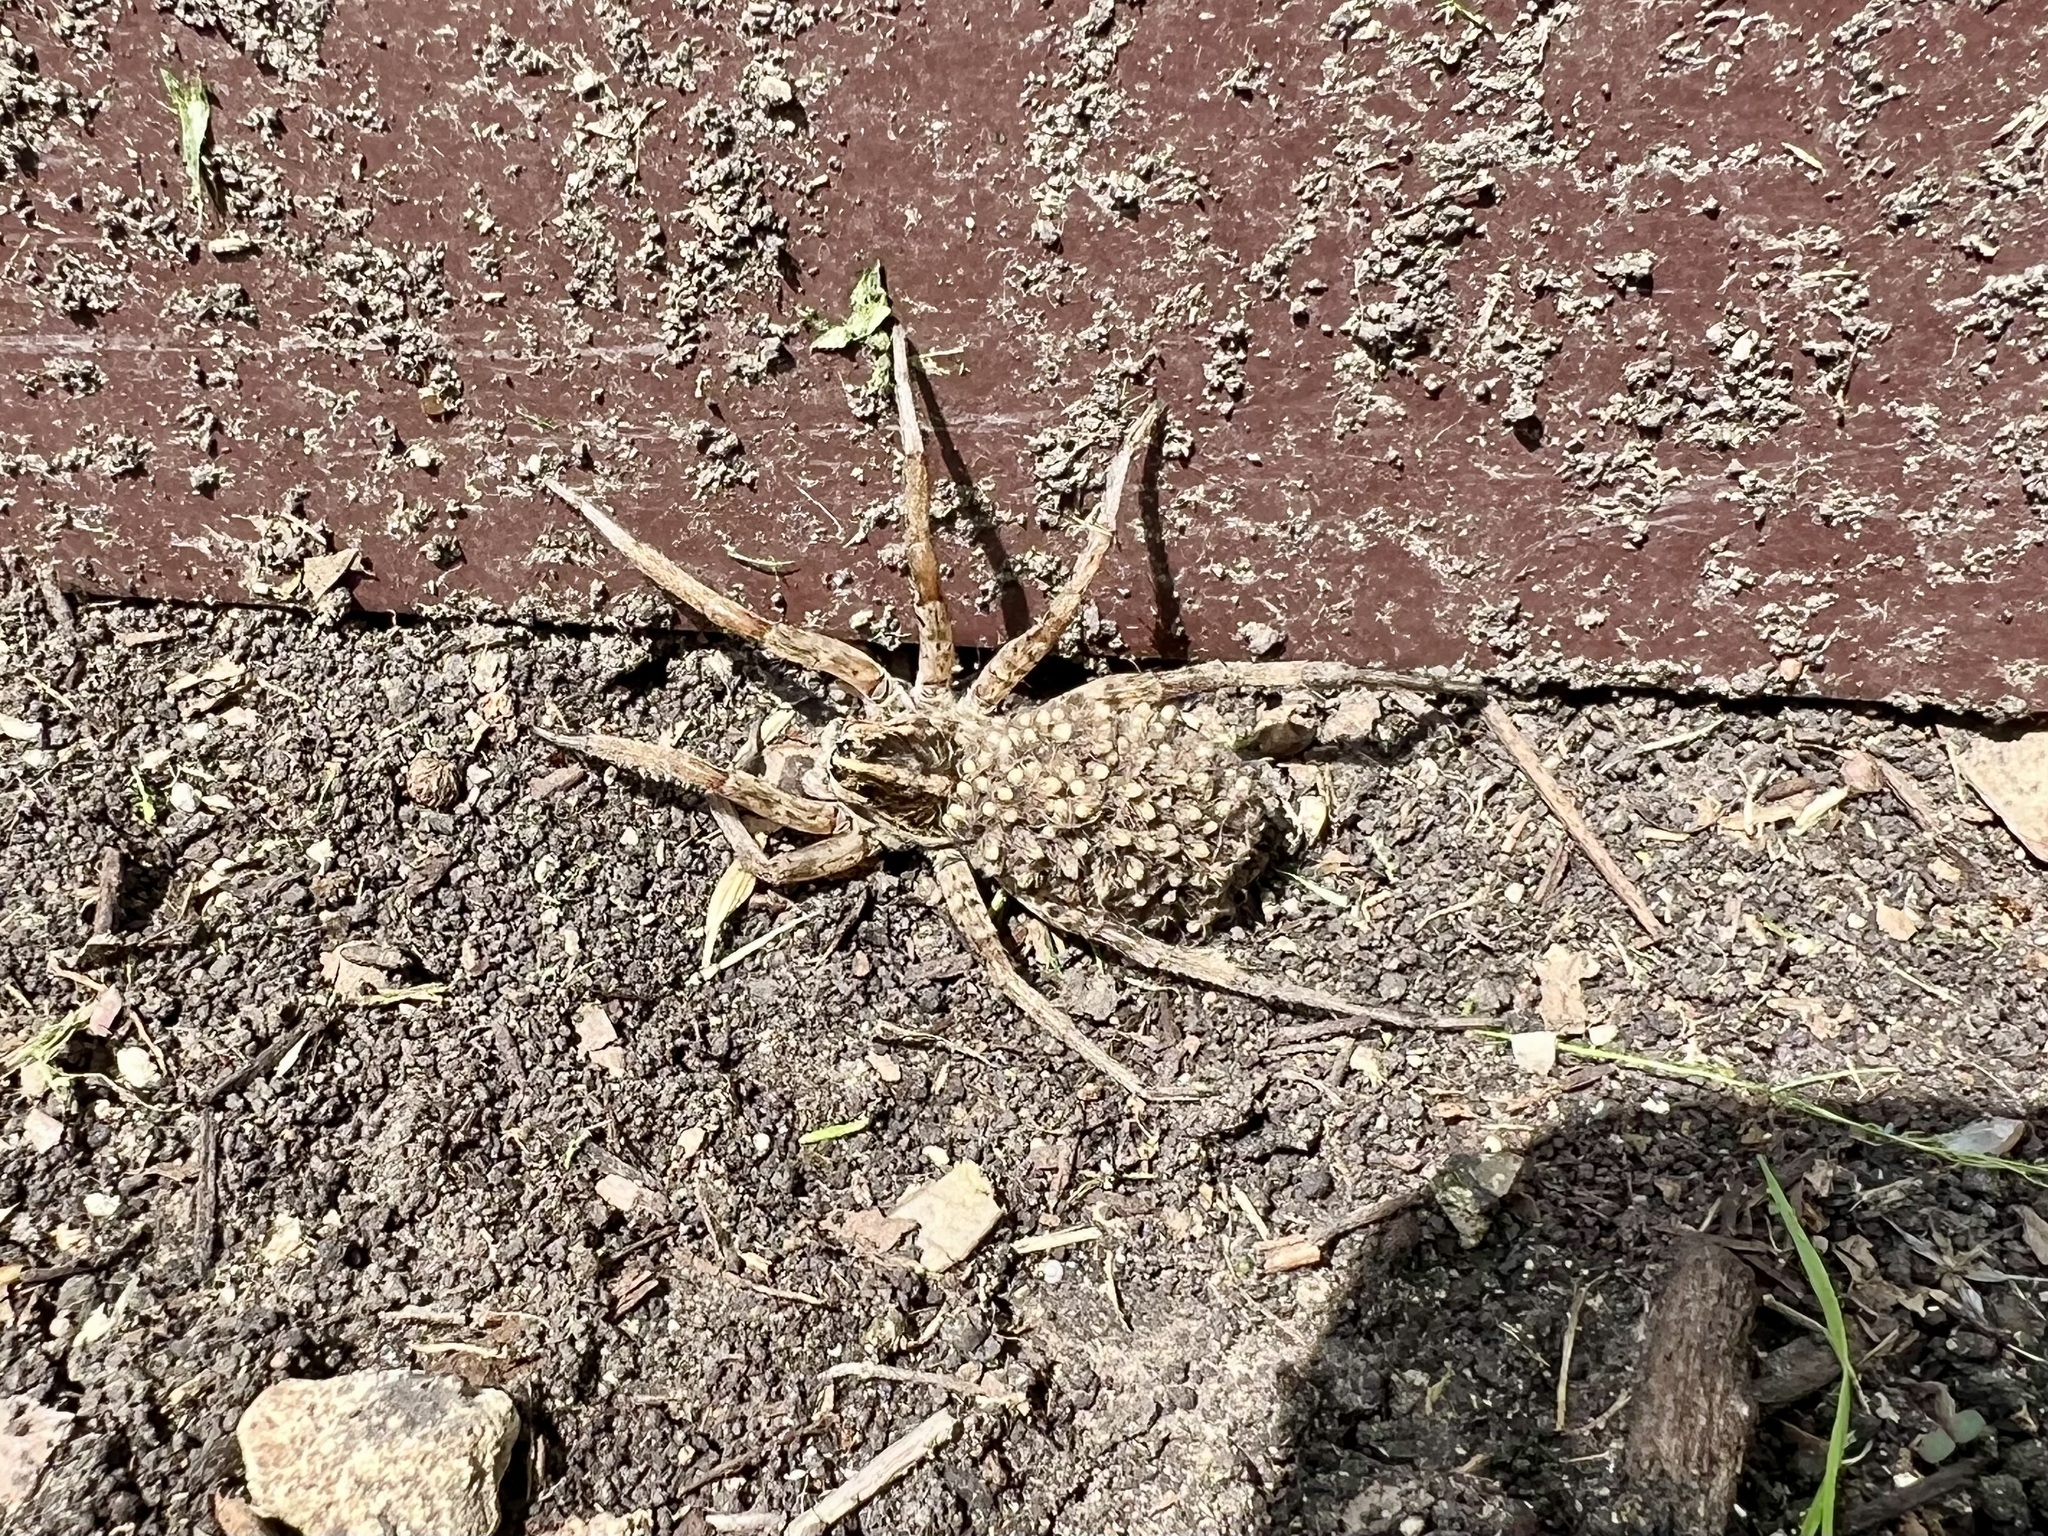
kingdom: Animalia
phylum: Arthropoda
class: Arachnida
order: Araneae
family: Lycosidae
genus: Hogna
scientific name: Hogna antelucana
